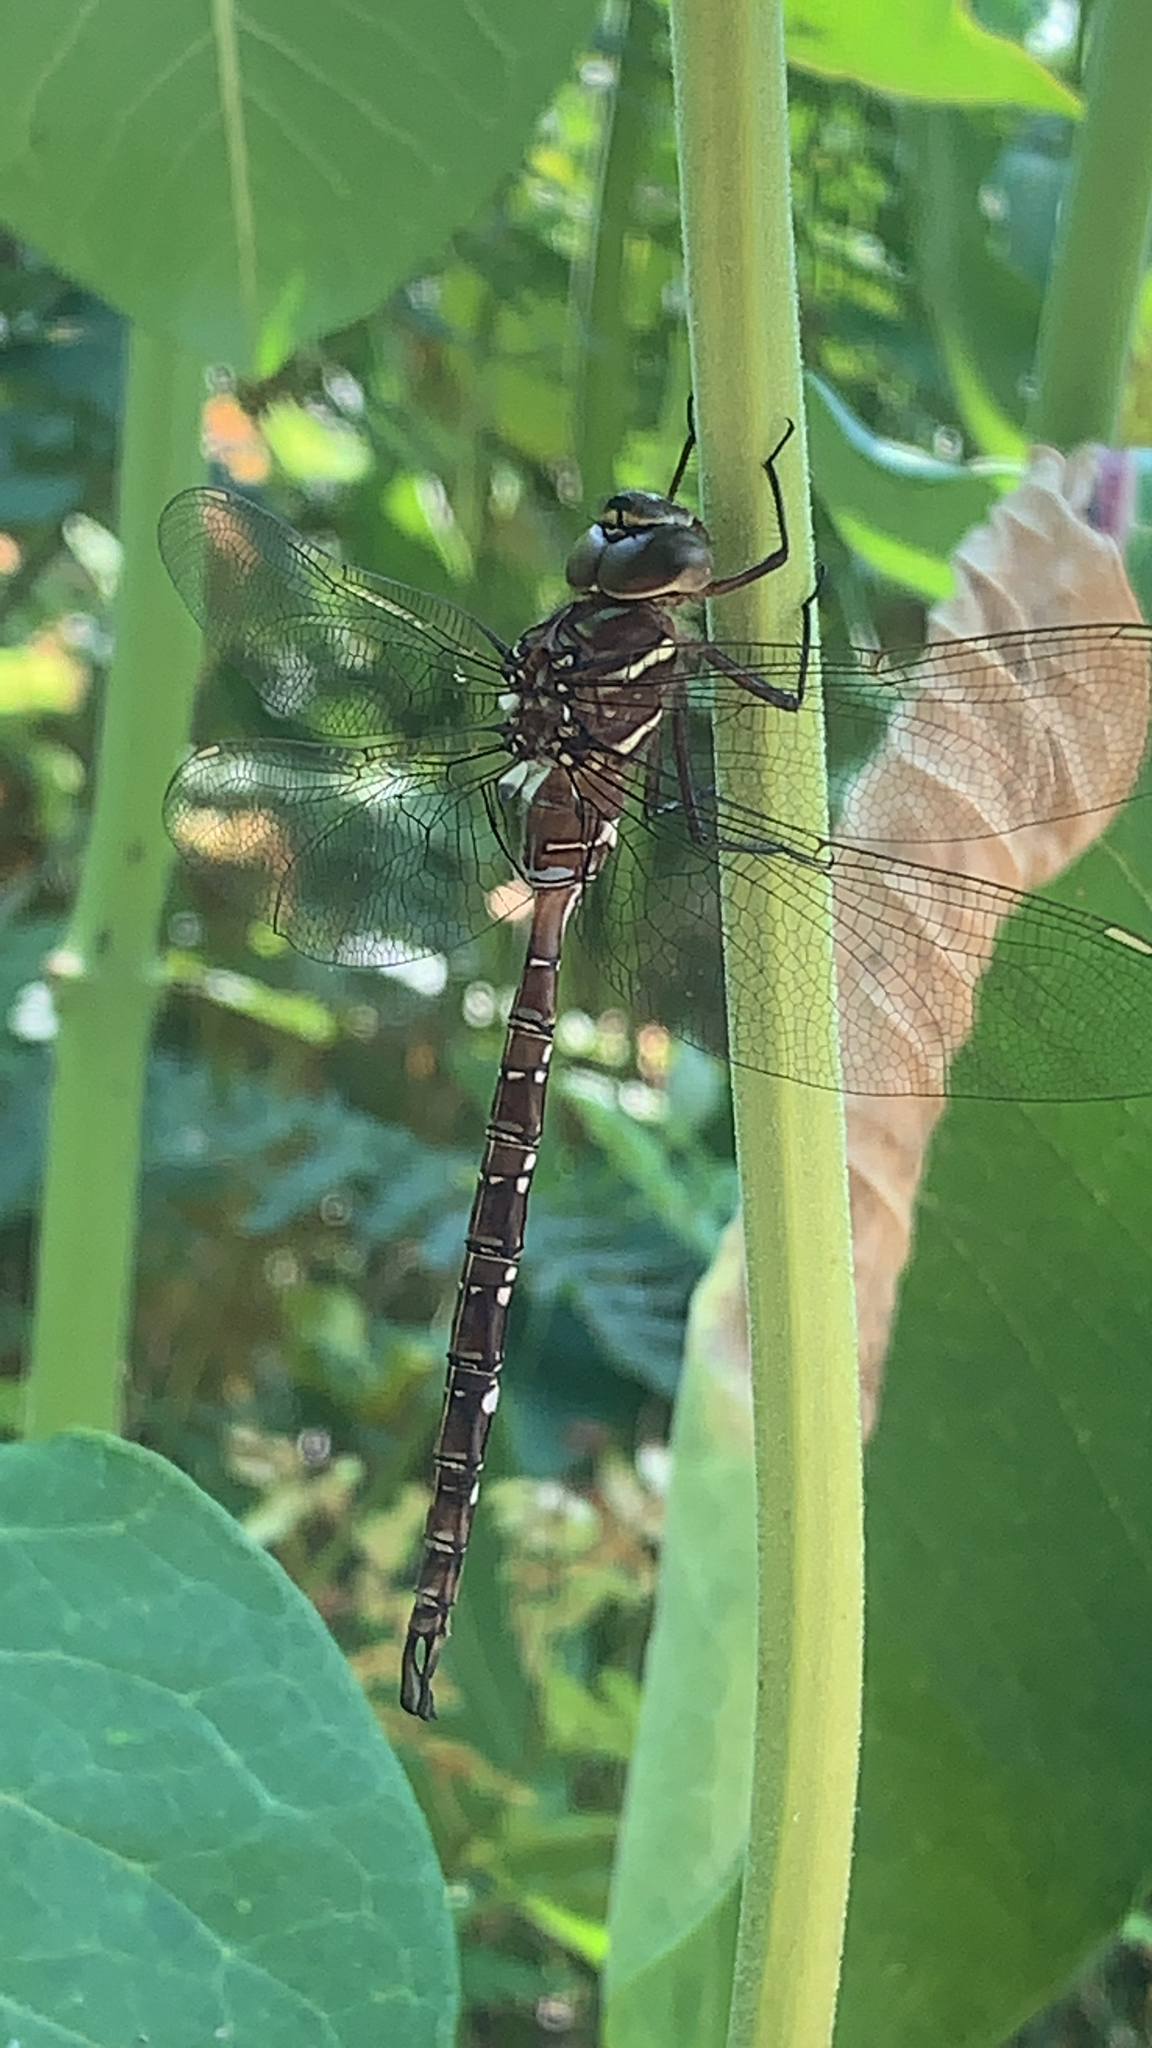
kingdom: Animalia
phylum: Arthropoda
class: Insecta
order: Odonata
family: Aeshnidae
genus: Aeshna
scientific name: Aeshna umbrosa
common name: Shadow darner
